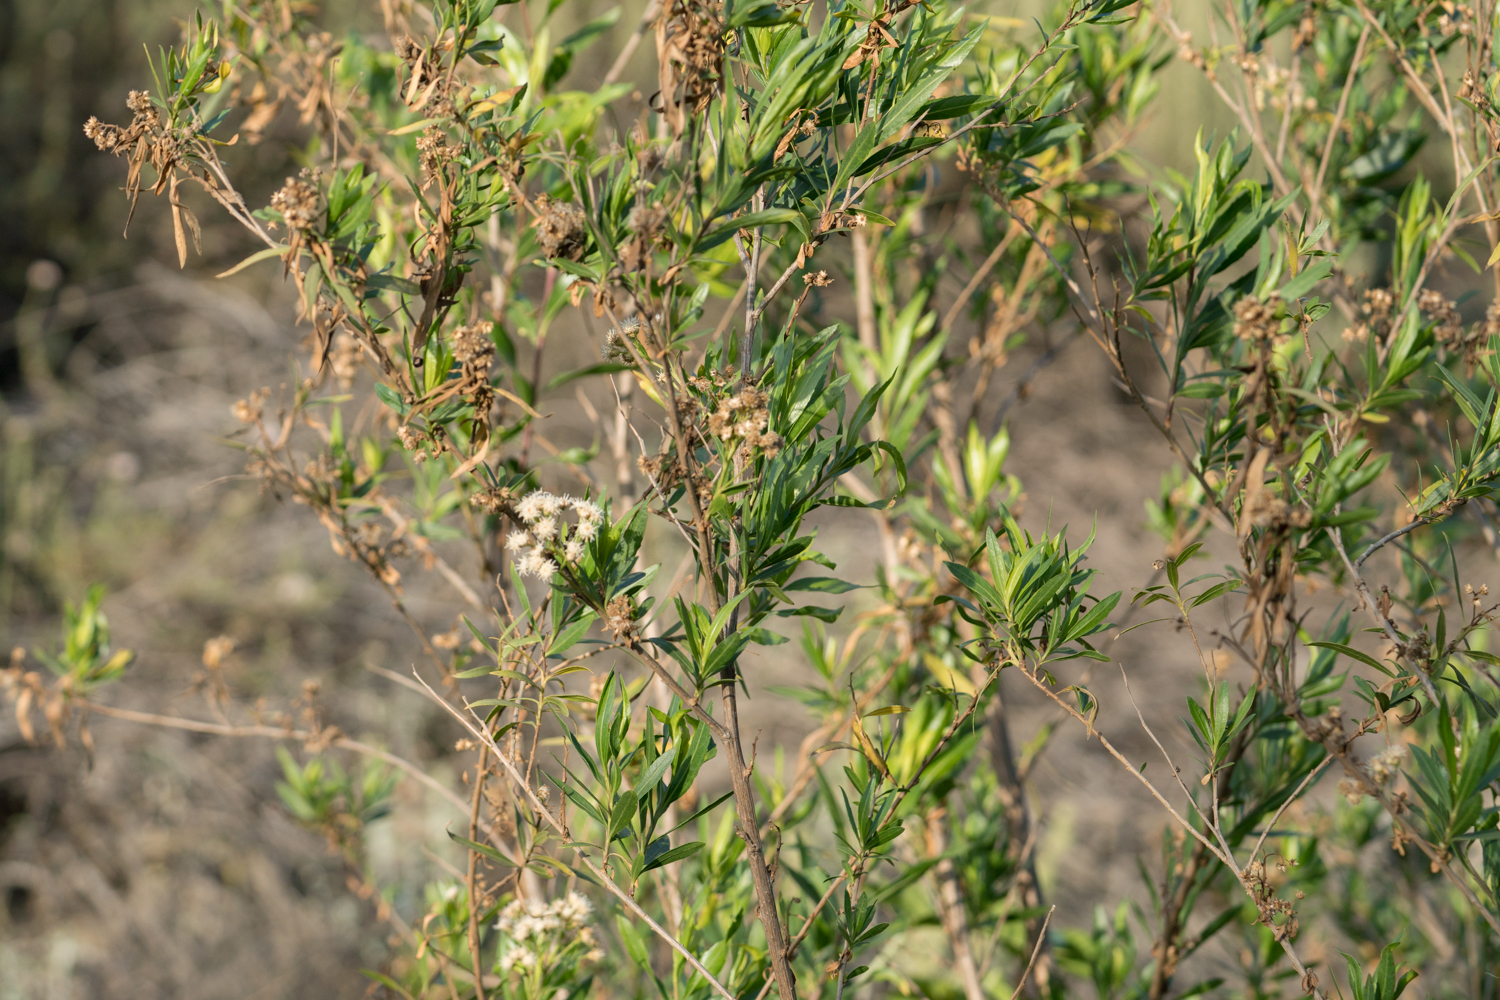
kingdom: Plantae
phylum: Tracheophyta
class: Magnoliopsida
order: Asterales
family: Asteraceae
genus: Baccharis
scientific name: Baccharis salicifolia
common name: Sticky baccharis
